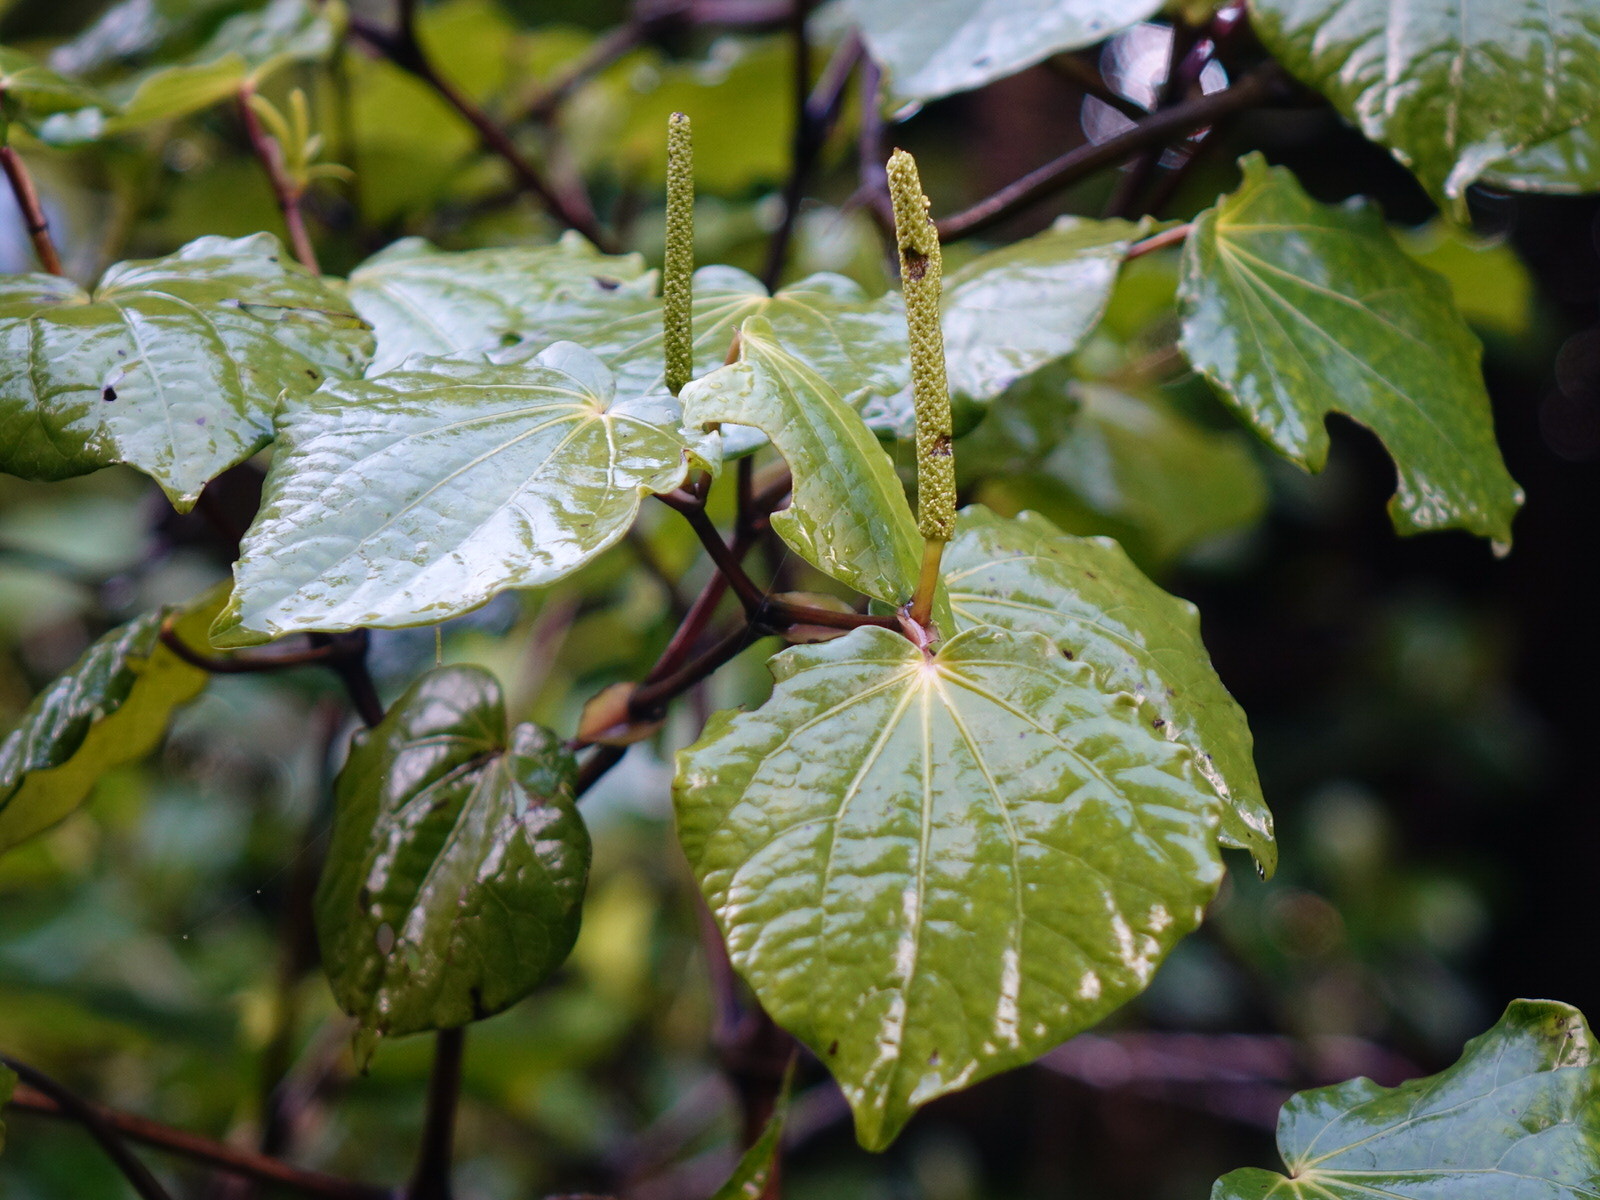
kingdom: Plantae
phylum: Tracheophyta
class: Magnoliopsida
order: Piperales
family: Piperaceae
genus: Macropiper
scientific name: Macropiper excelsum
